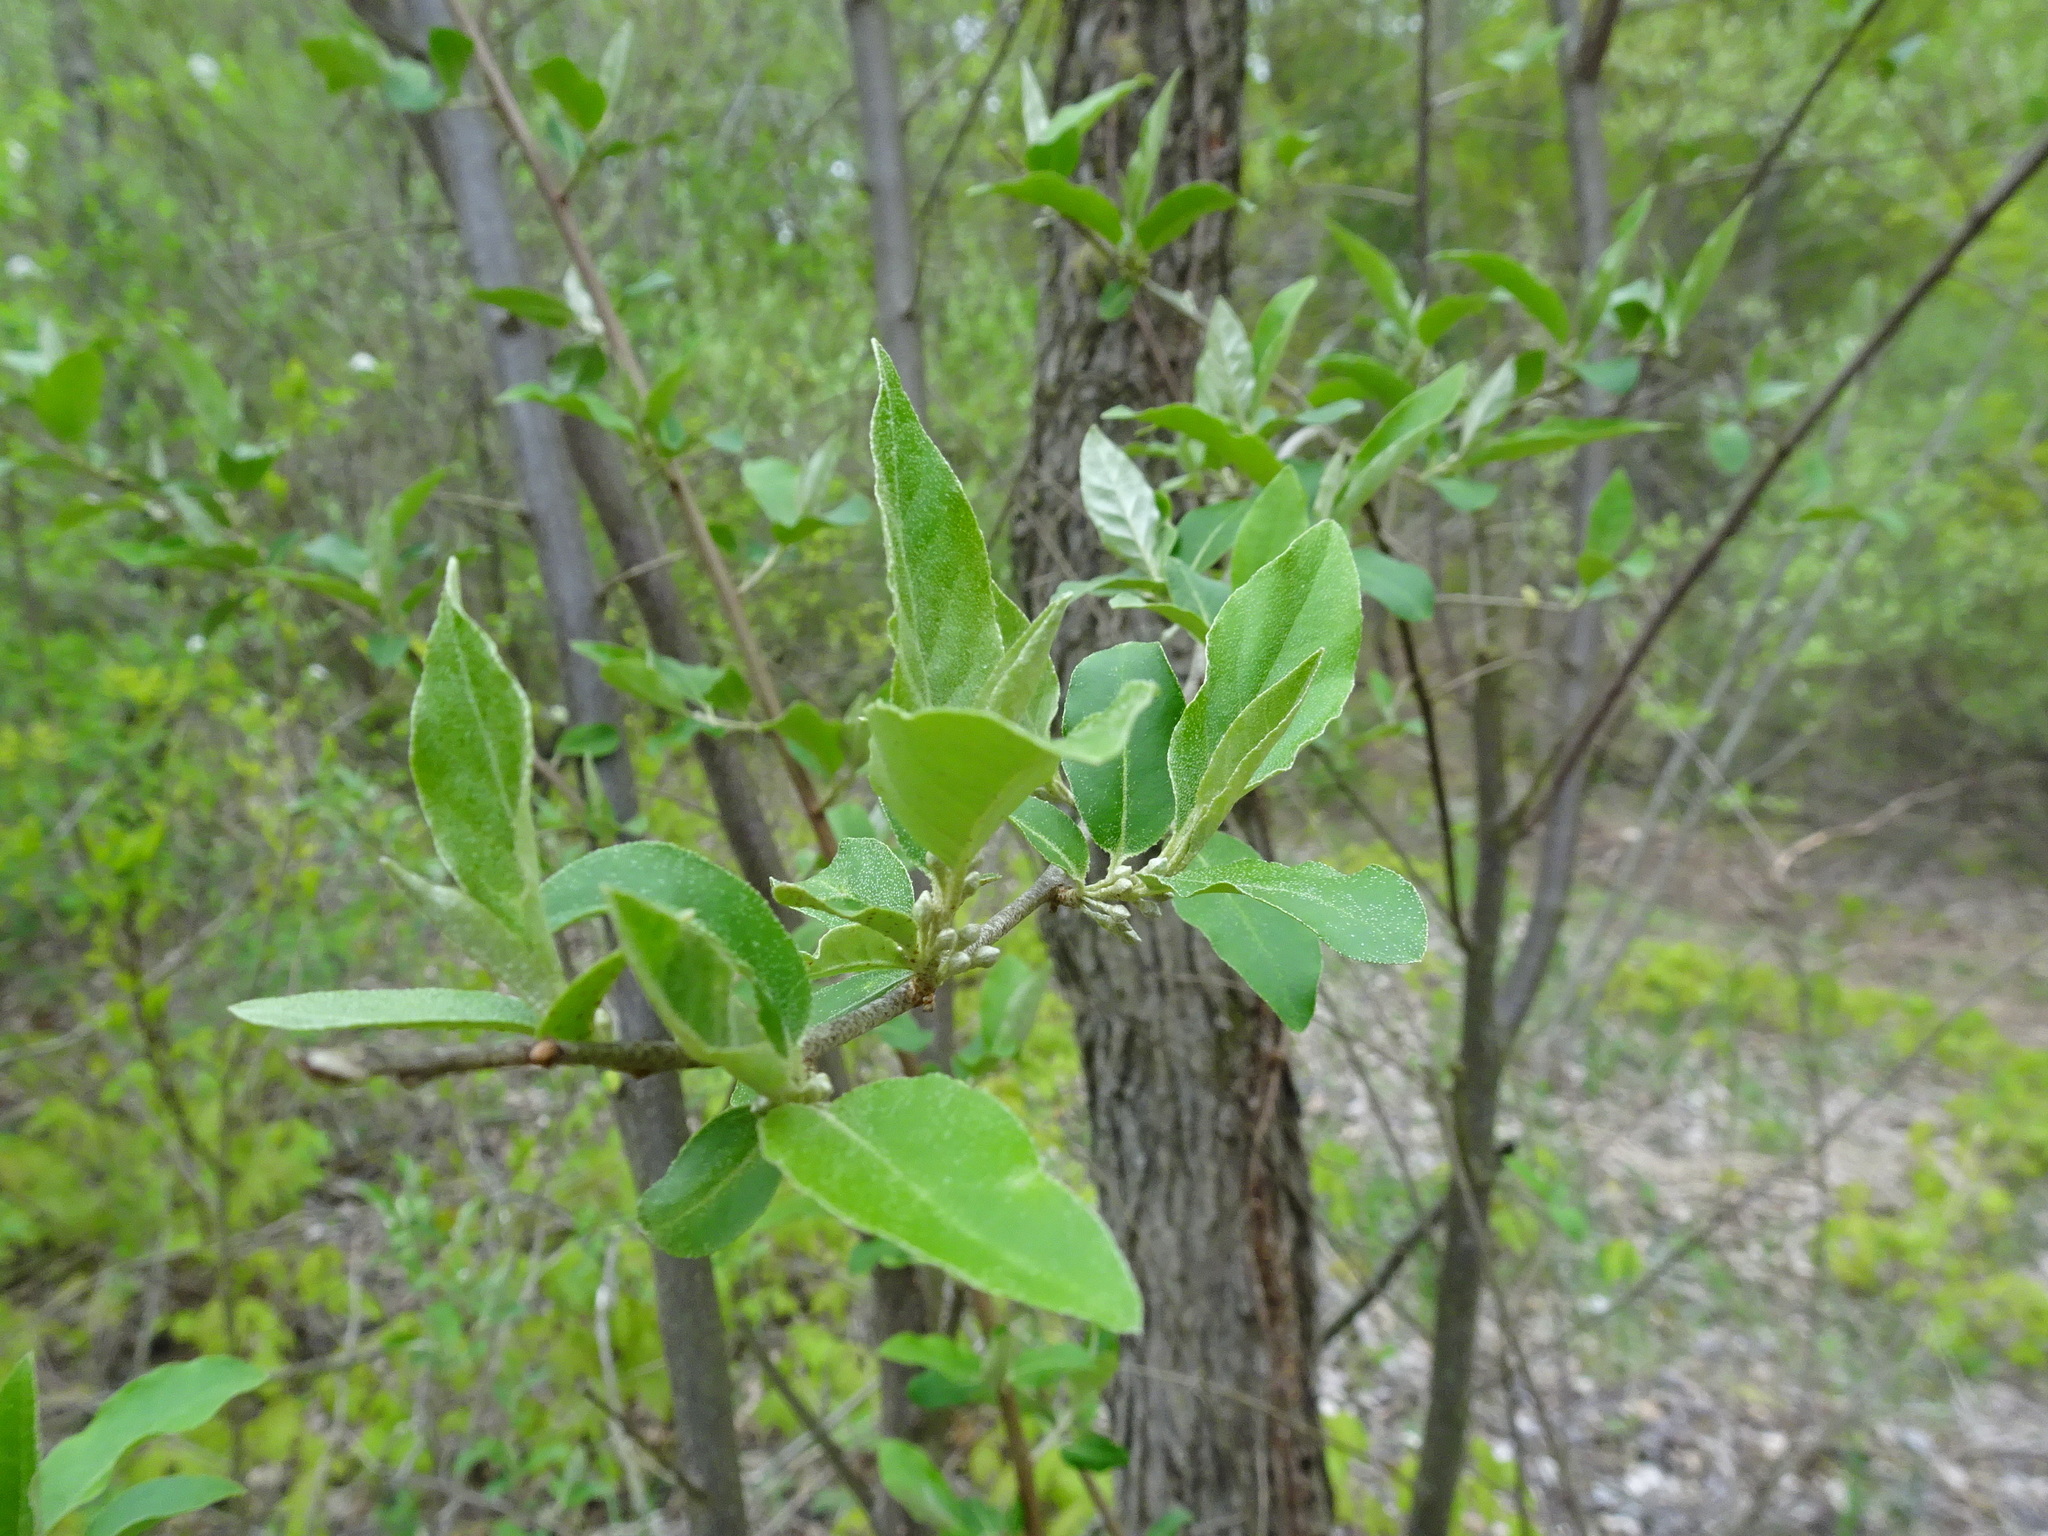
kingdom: Plantae
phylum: Tracheophyta
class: Magnoliopsida
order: Rosales
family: Elaeagnaceae
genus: Elaeagnus
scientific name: Elaeagnus umbellata
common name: Autumn olive
